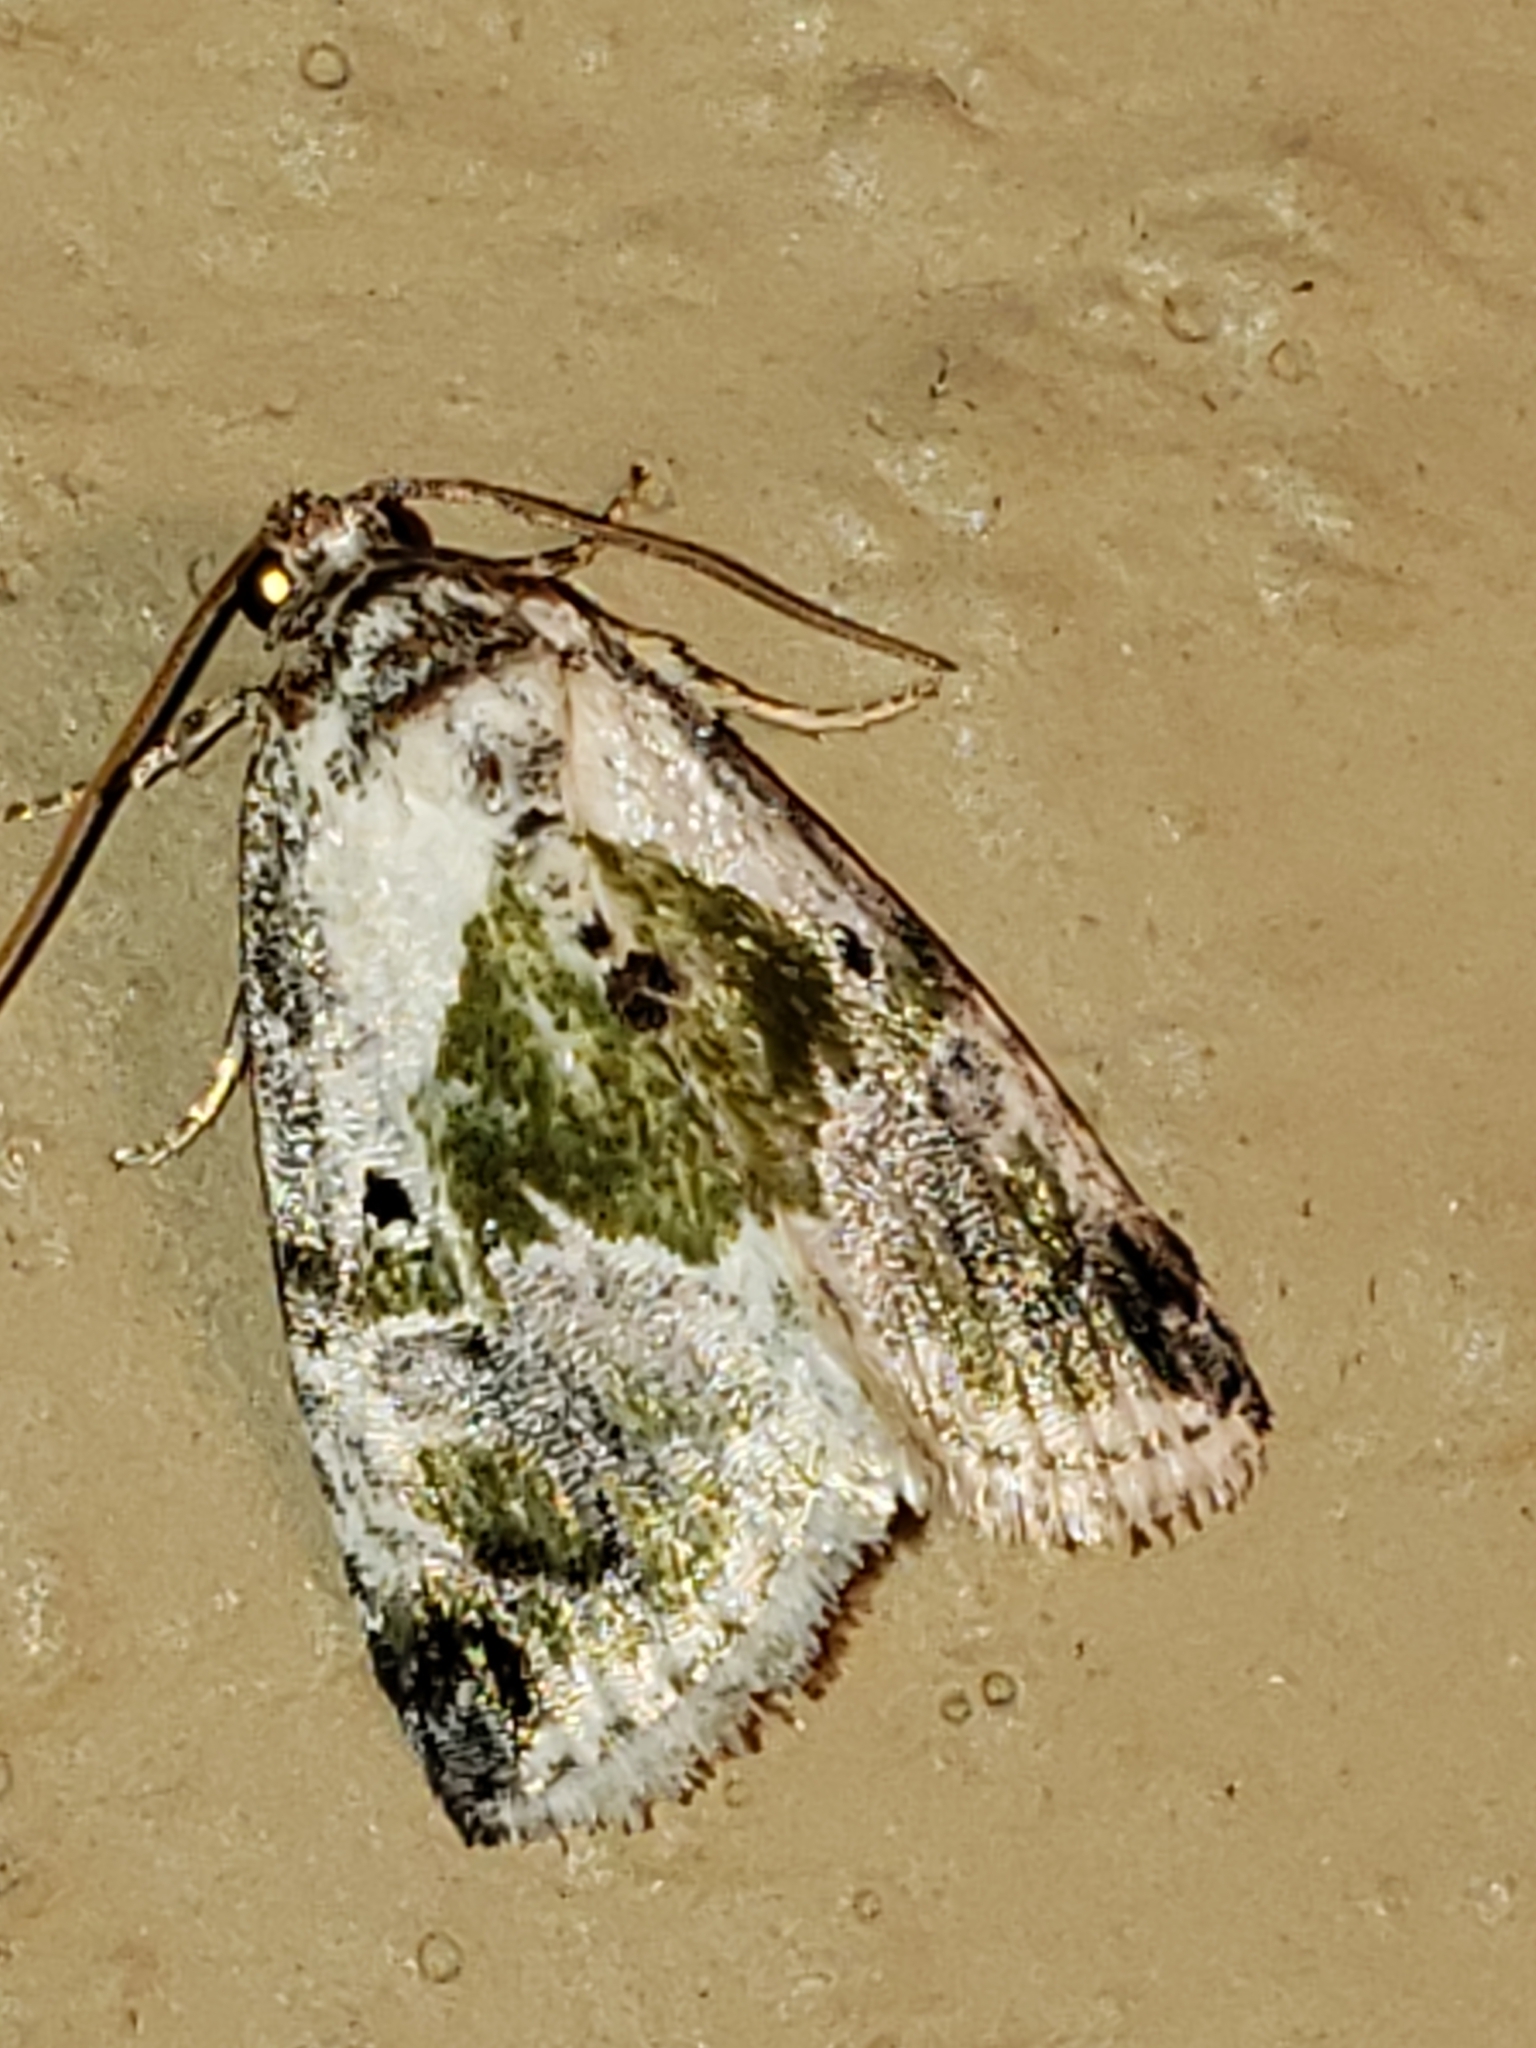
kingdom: Animalia
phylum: Arthropoda
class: Insecta
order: Lepidoptera
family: Noctuidae
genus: Maliattha
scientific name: Maliattha synochitis
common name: Black-dotted glyph
